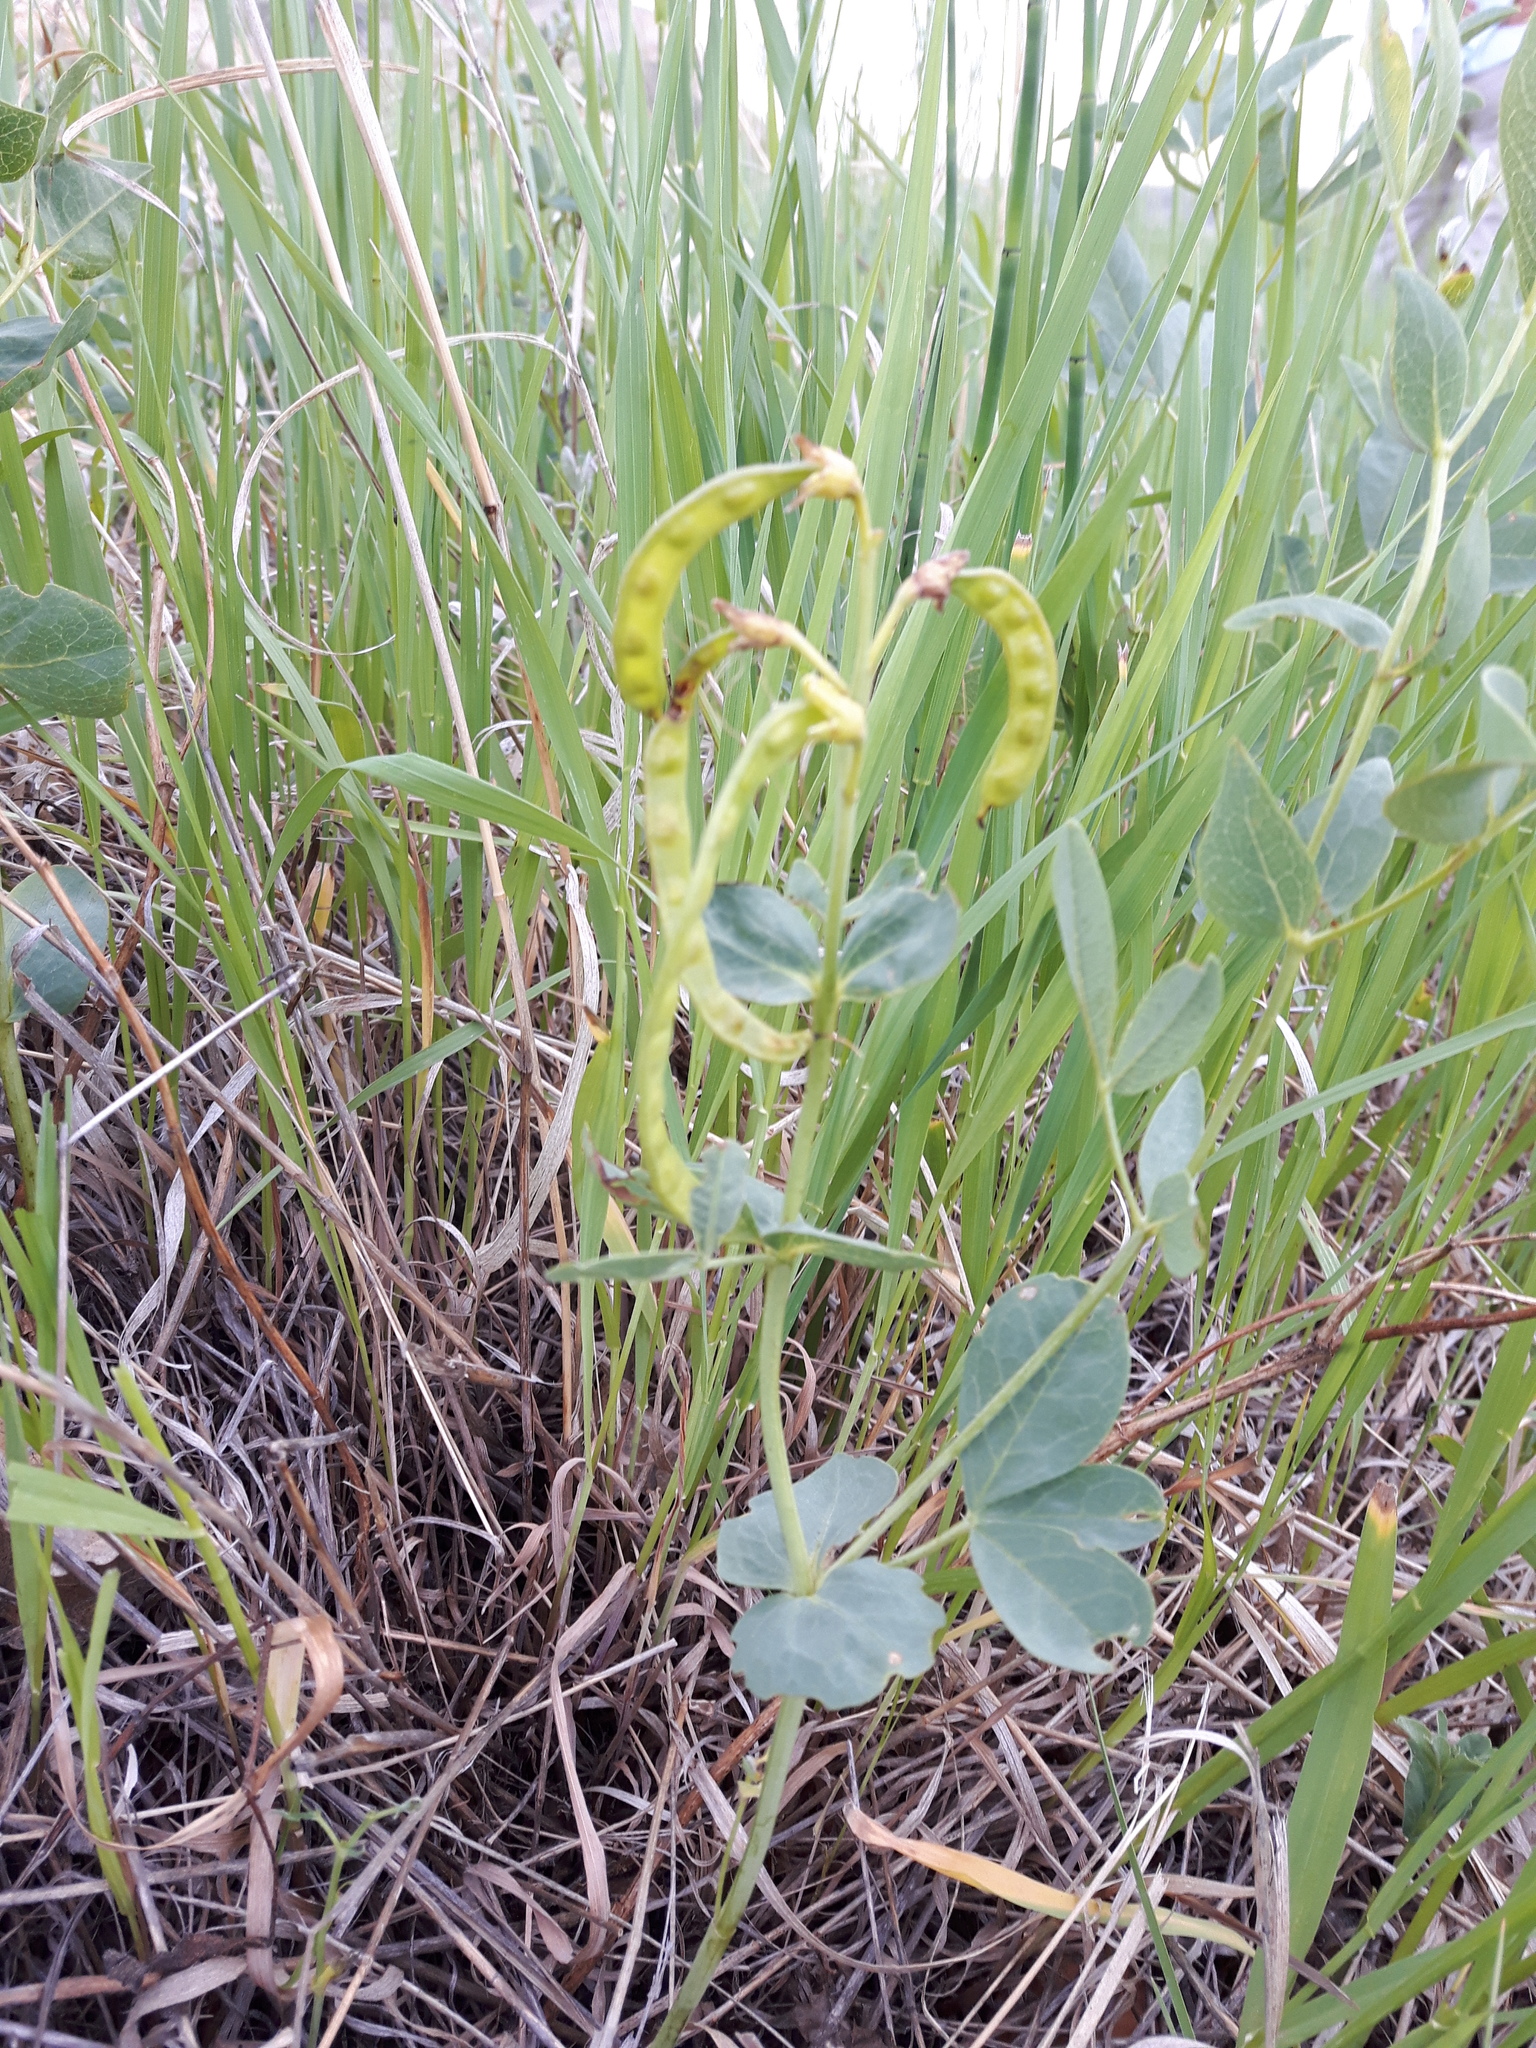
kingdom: Plantae
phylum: Tracheophyta
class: Magnoliopsida
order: Fabales
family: Fabaceae
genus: Thermopsis
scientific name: Thermopsis rhombifolia
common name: Circle-pod-pea
